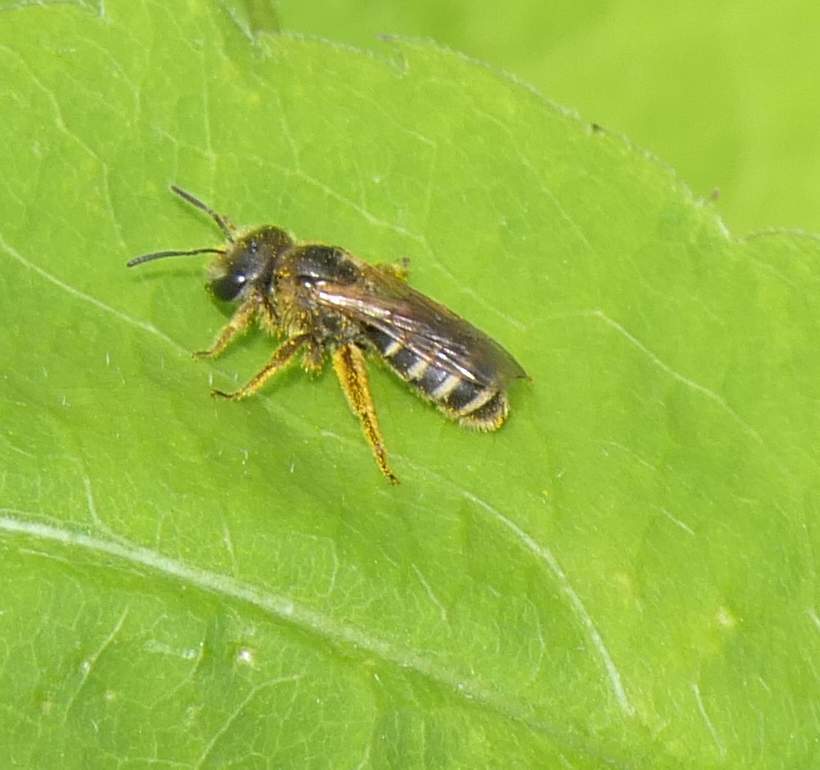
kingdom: Animalia
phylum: Arthropoda
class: Insecta
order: Hymenoptera
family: Halictidae
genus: Halictus
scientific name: Halictus ligatus
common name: Ligated furrow bee
